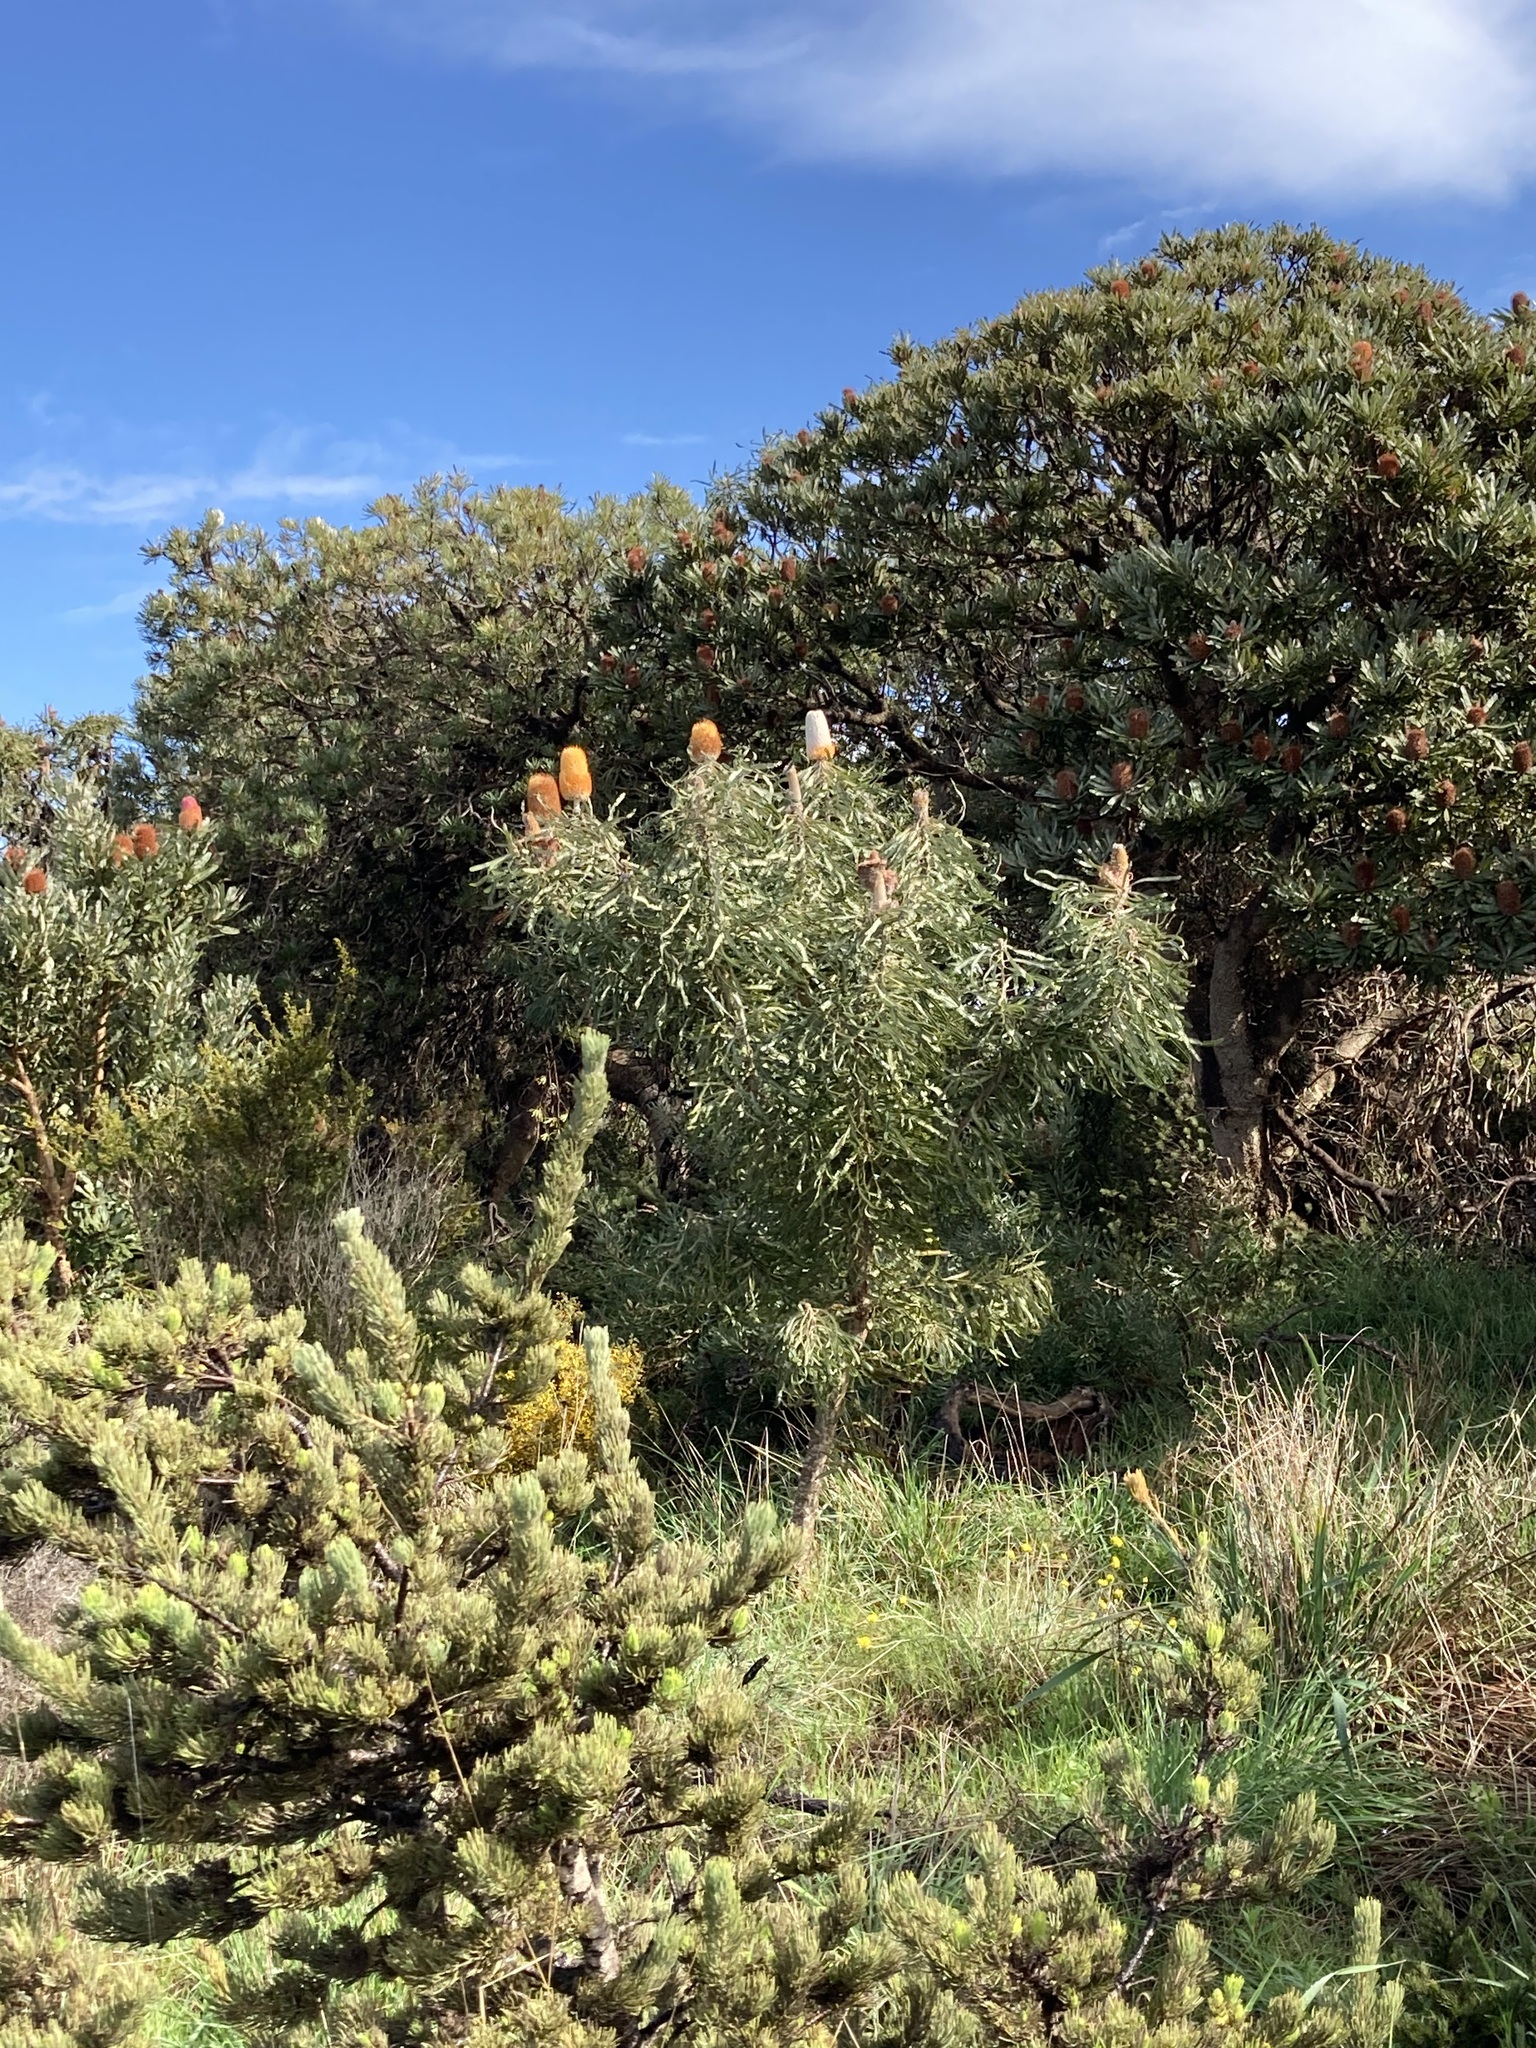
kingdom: Plantae
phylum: Tracheophyta
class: Magnoliopsida
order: Proteales
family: Proteaceae
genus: Banksia
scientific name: Banksia prionotes
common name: Acorn banksia
